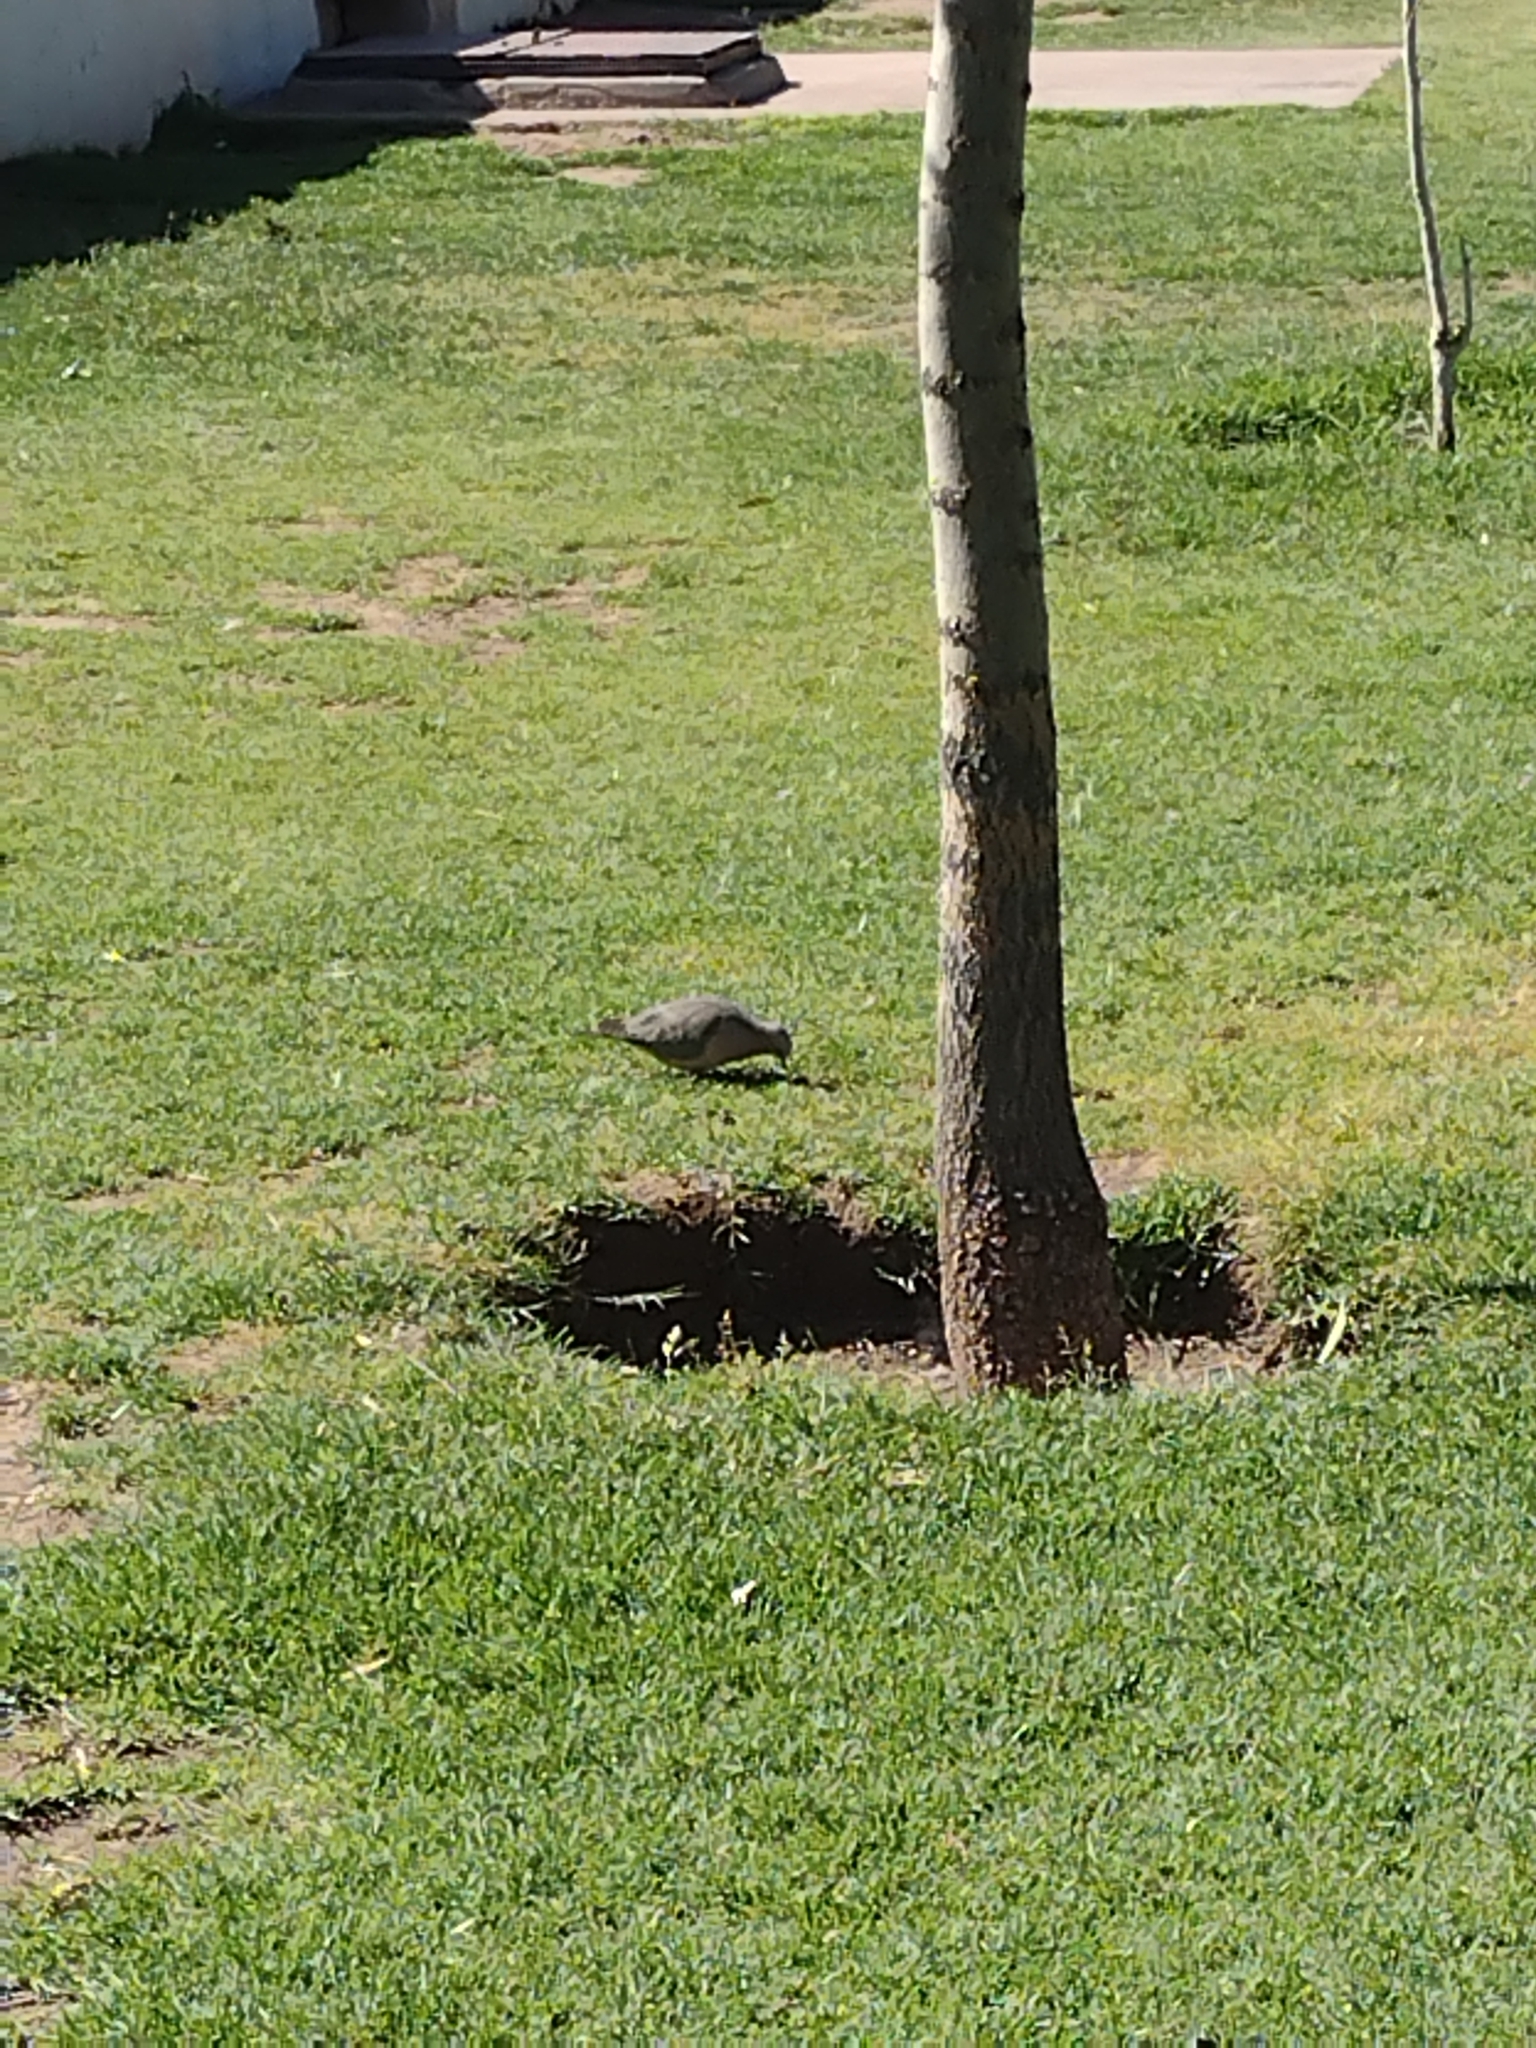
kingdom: Animalia
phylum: Chordata
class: Aves
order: Columbiformes
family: Columbidae
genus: Zenaida
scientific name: Zenaida auriculata
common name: Eared dove
